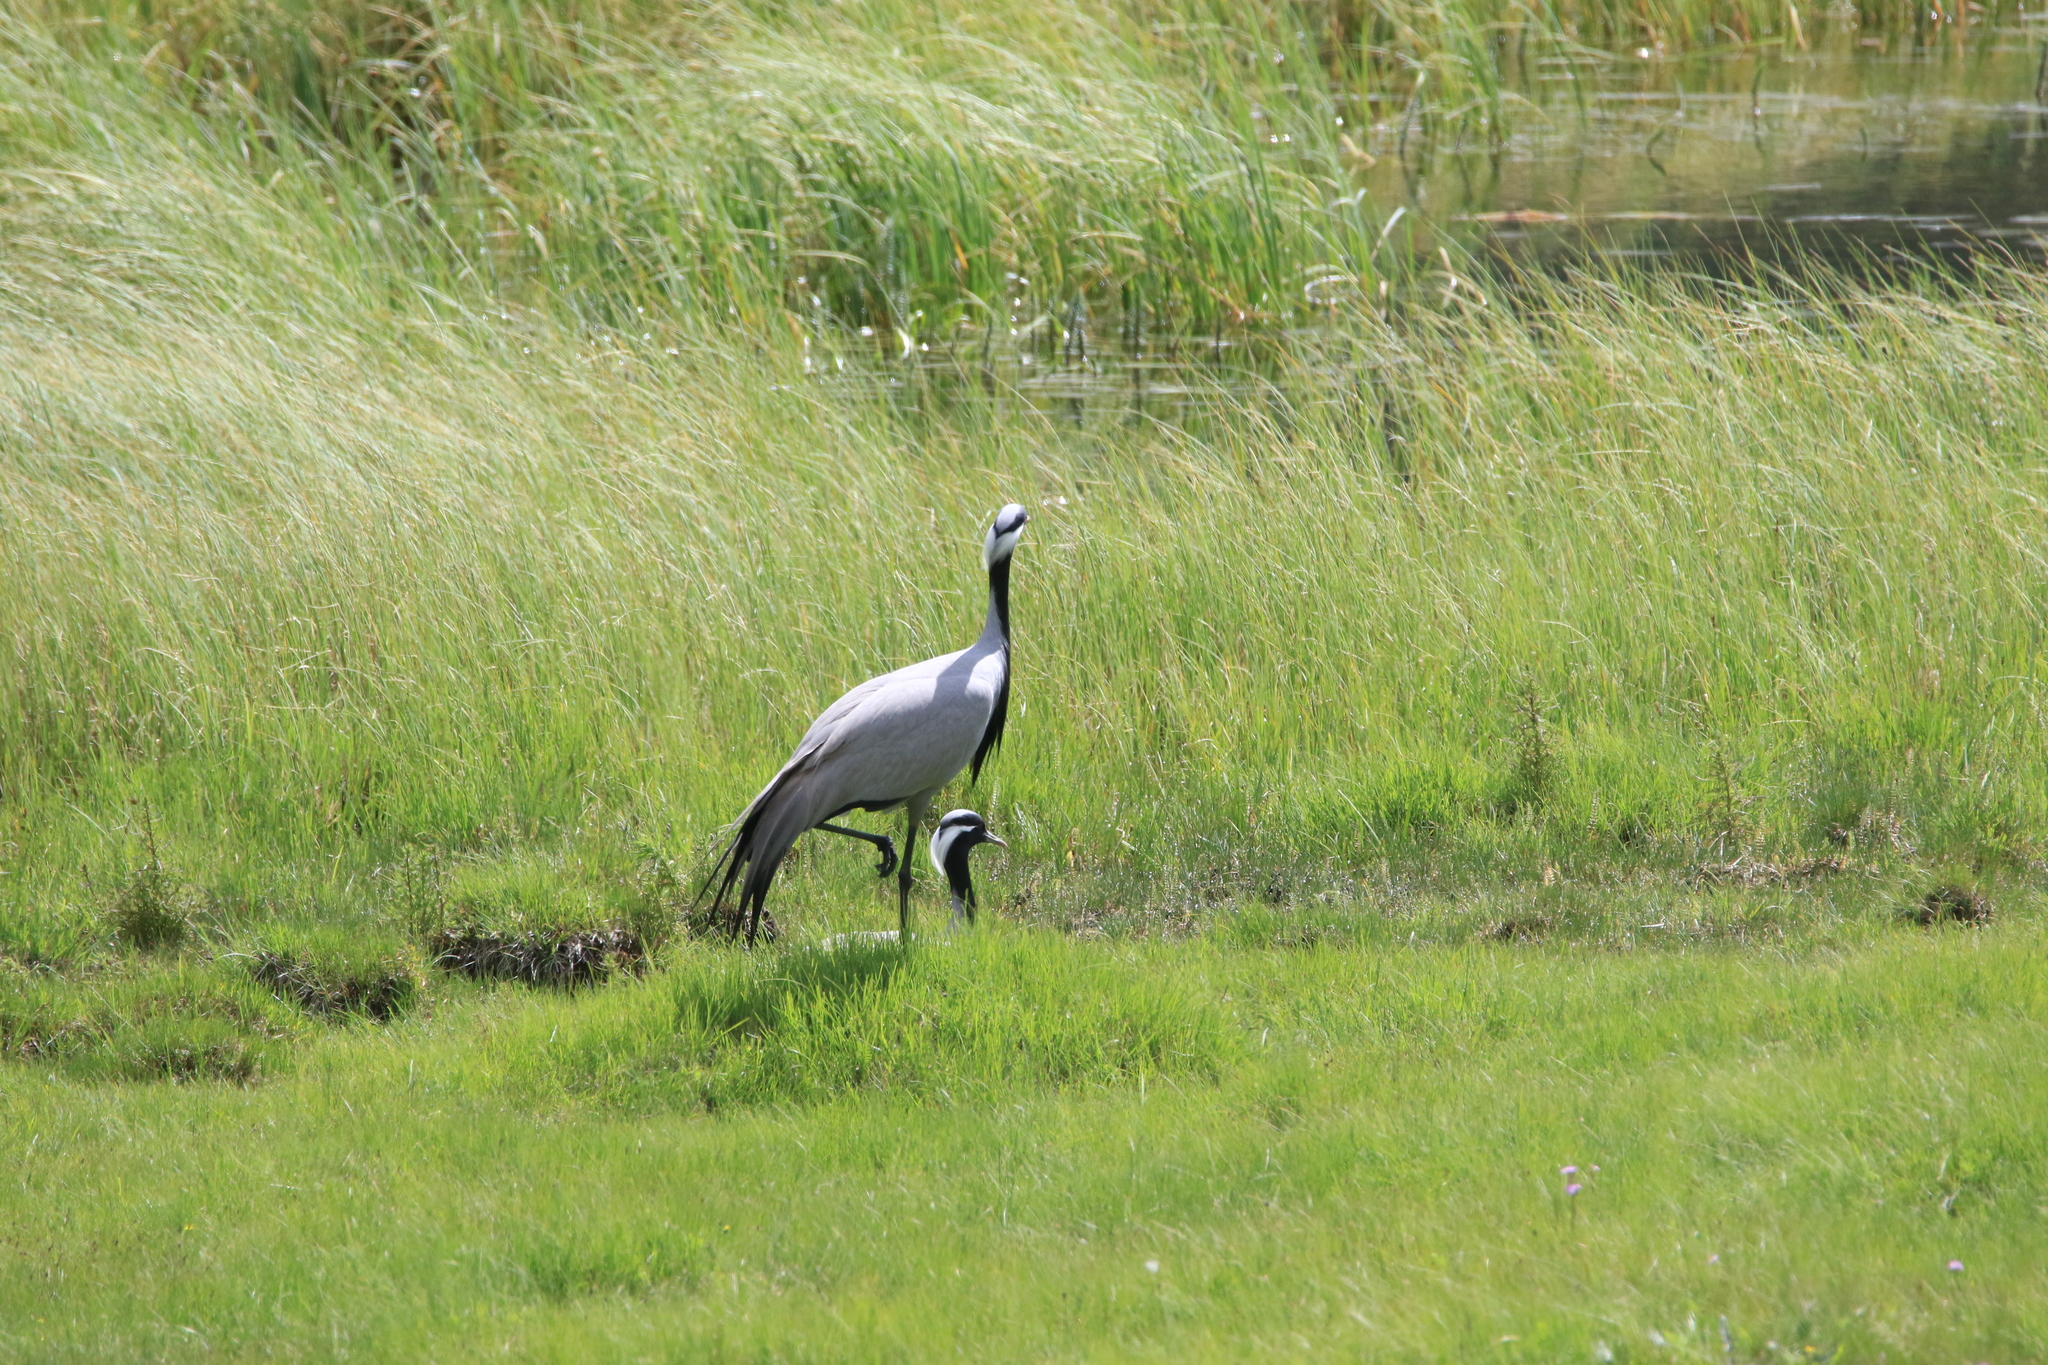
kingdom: Animalia
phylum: Chordata
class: Aves
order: Gruiformes
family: Gruidae
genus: Anthropoides
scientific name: Anthropoides virgo
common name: Demoiselle crane
